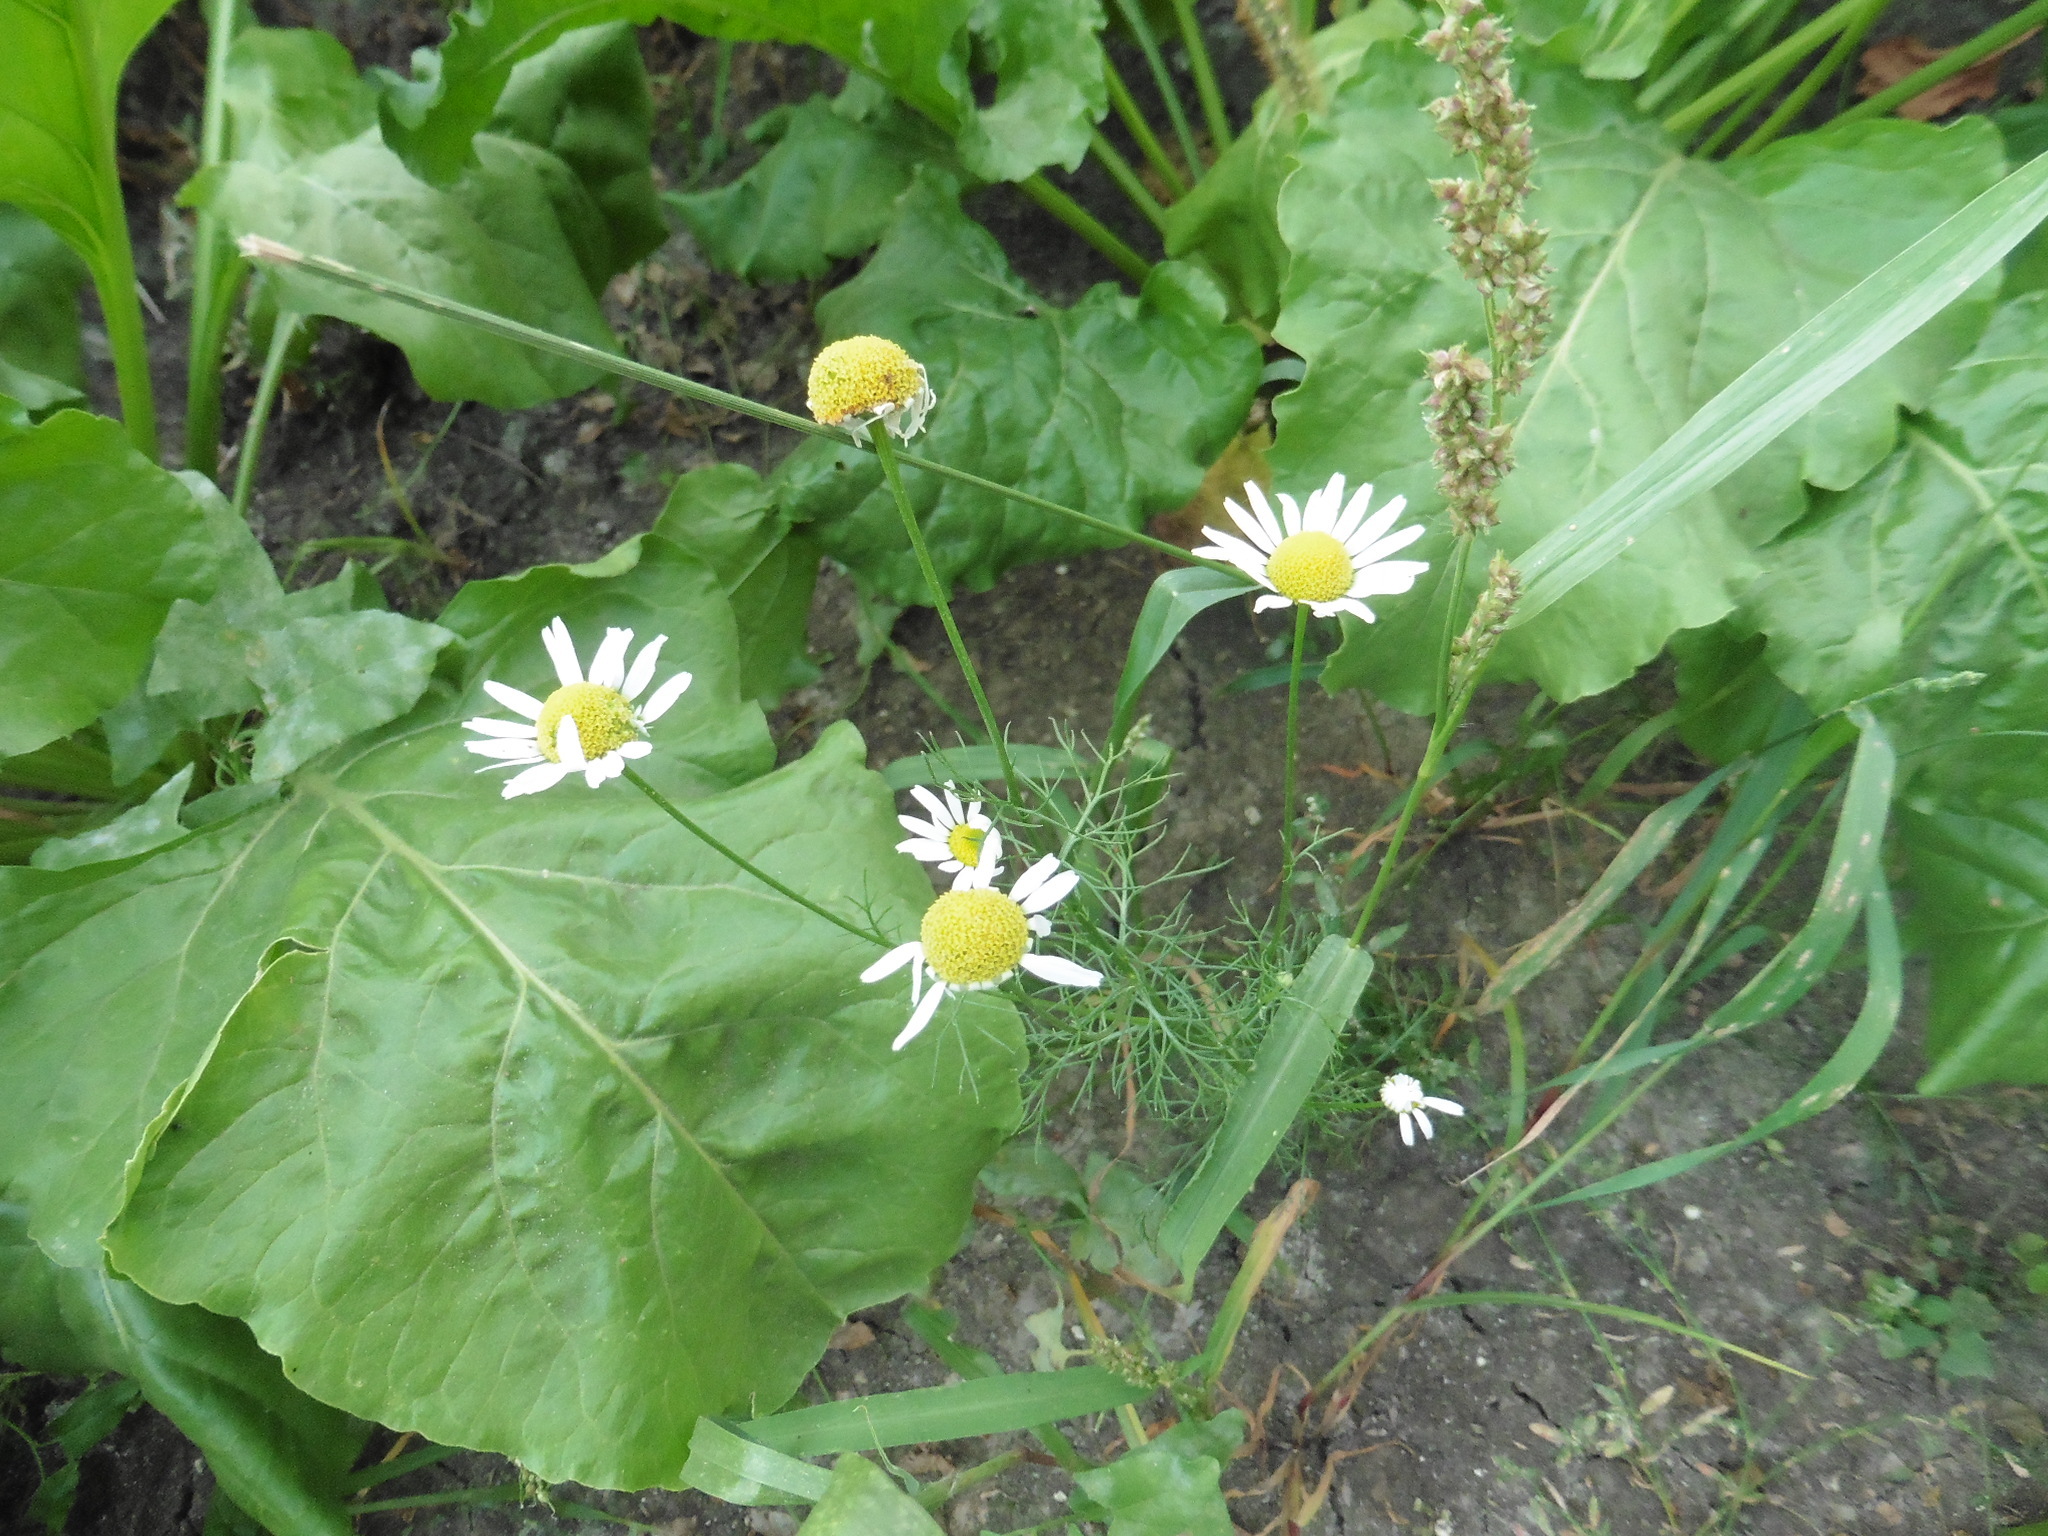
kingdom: Plantae
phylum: Tracheophyta
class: Magnoliopsida
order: Asterales
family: Asteraceae
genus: Tripleurospermum
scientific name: Tripleurospermum inodorum
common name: Scentless mayweed
